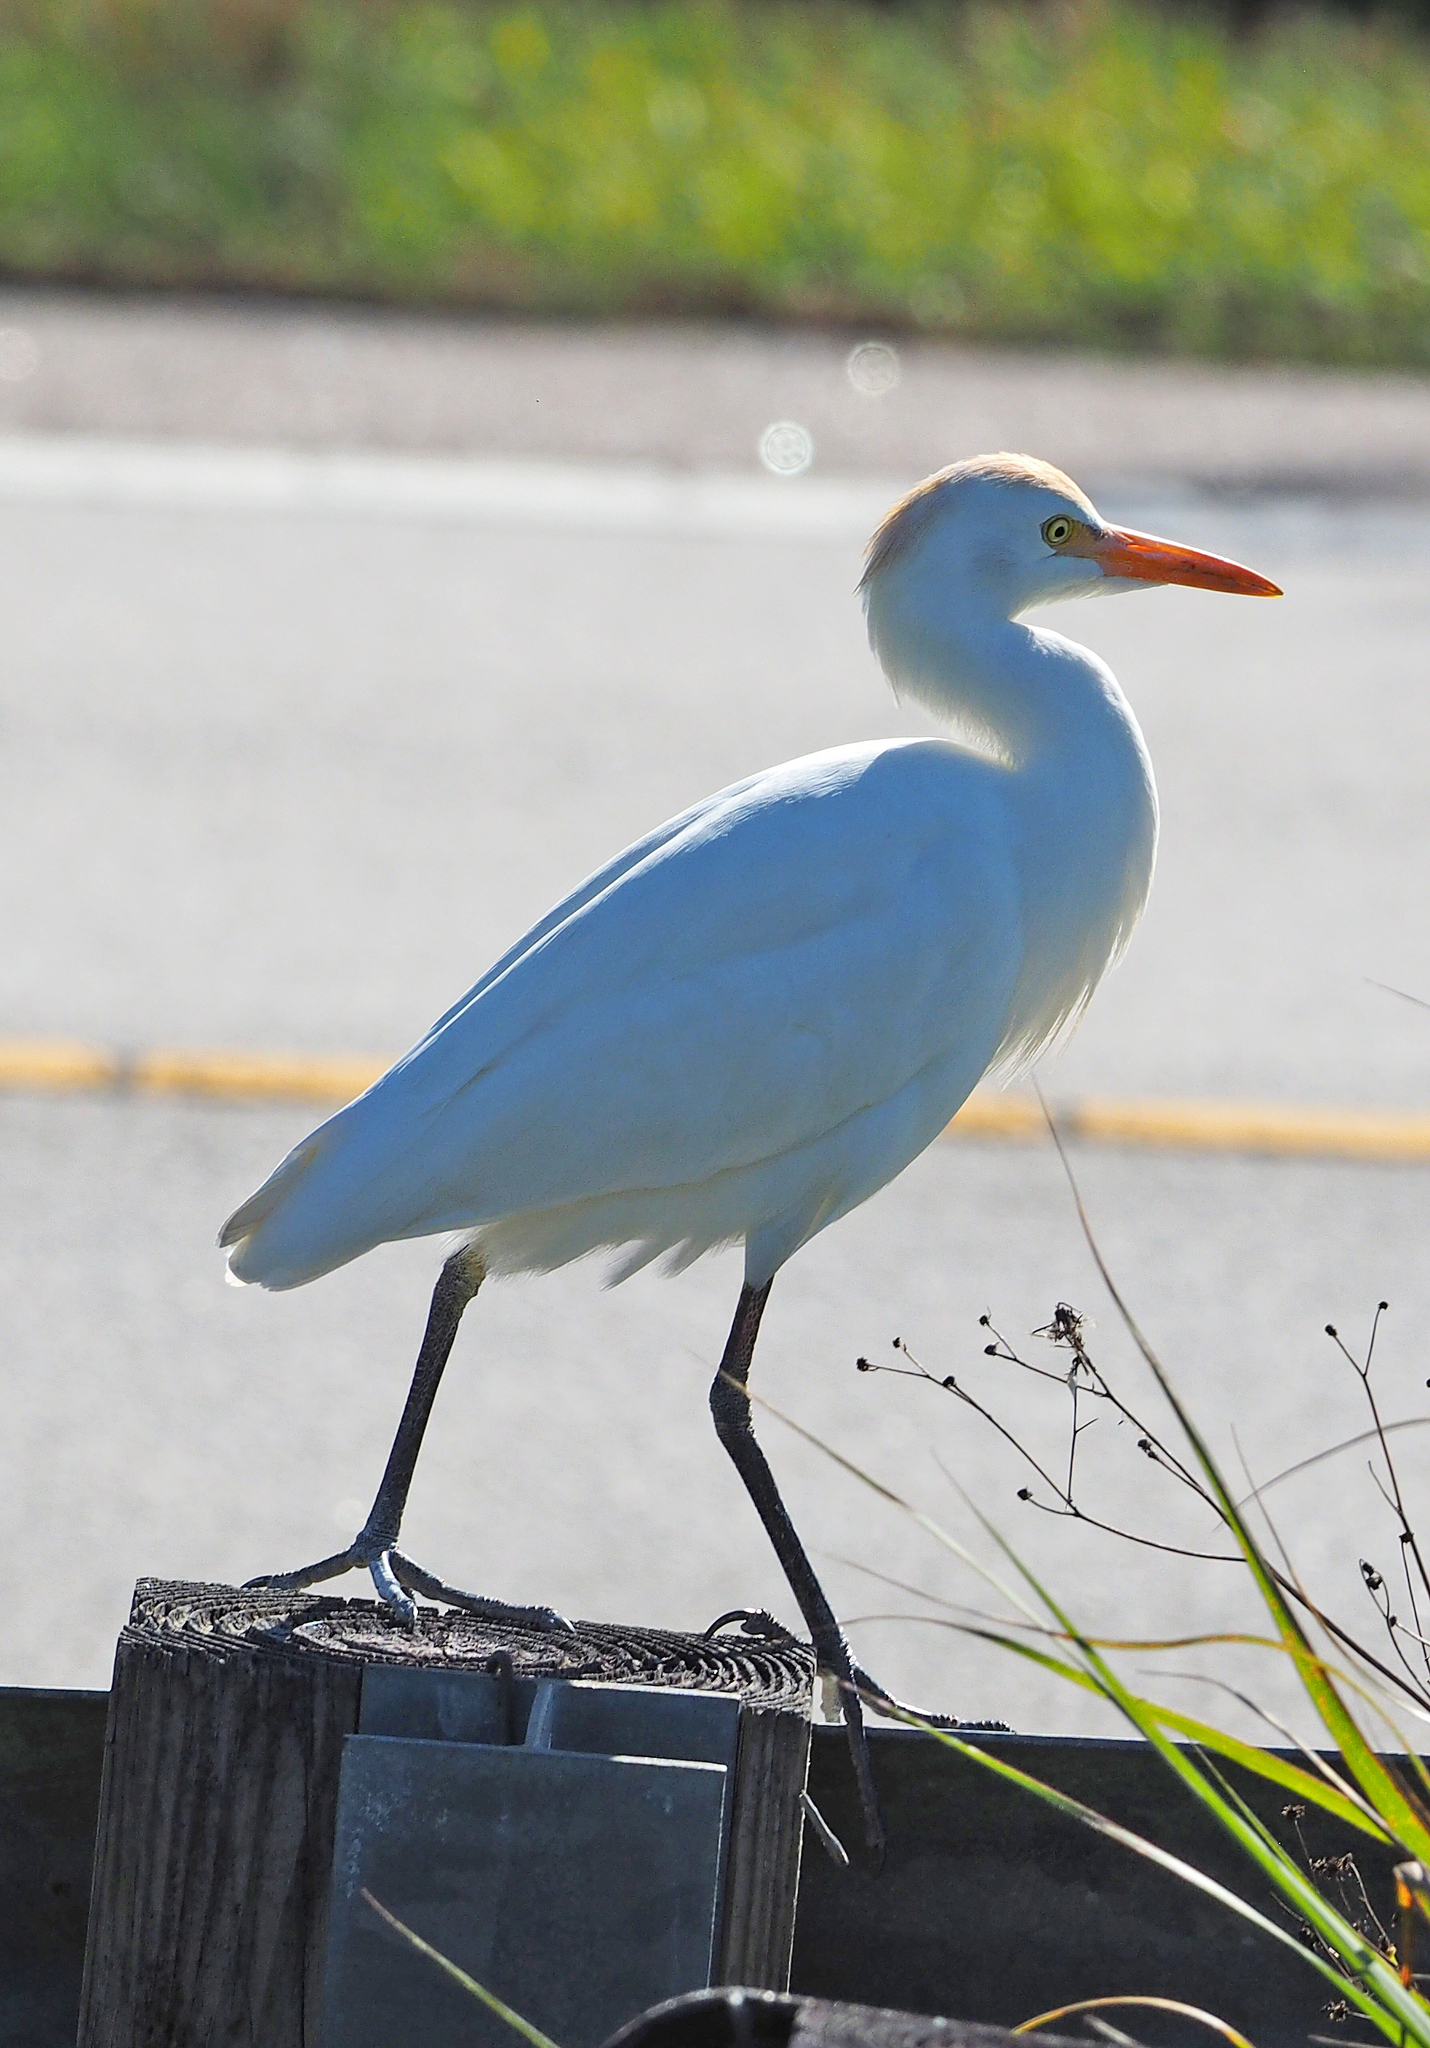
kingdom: Animalia
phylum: Chordata
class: Aves
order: Pelecaniformes
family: Ardeidae
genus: Bubulcus
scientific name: Bubulcus ibis
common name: Cattle egret
